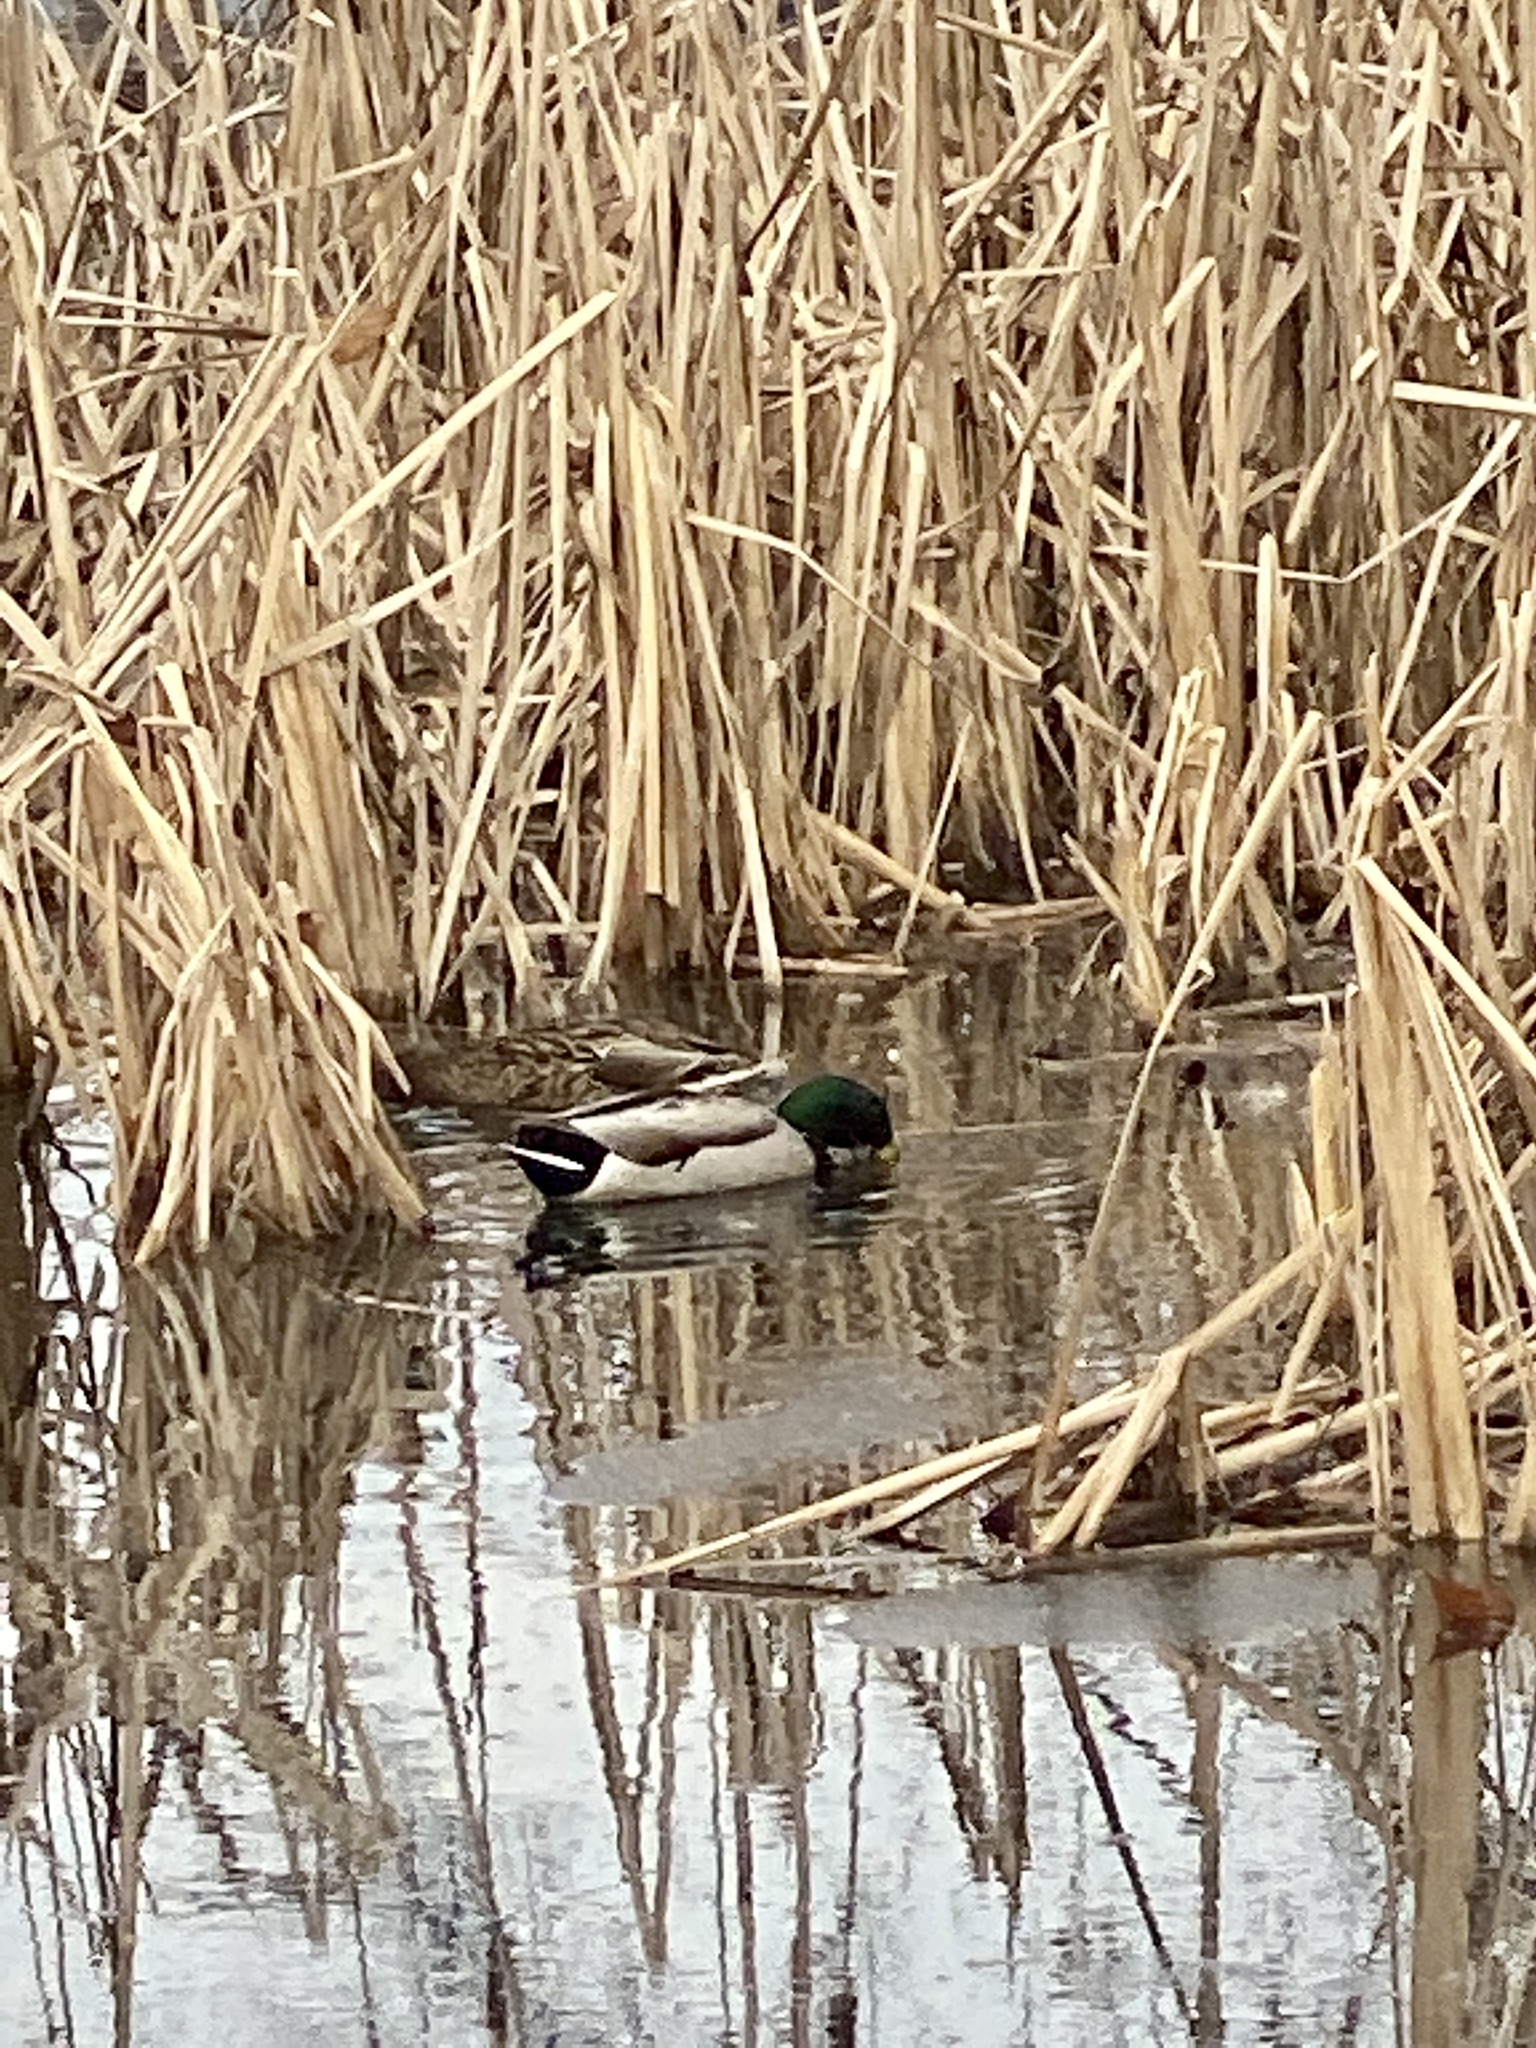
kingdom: Animalia
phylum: Chordata
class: Aves
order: Anseriformes
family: Anatidae
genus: Anas
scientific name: Anas platyrhynchos
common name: Mallard
